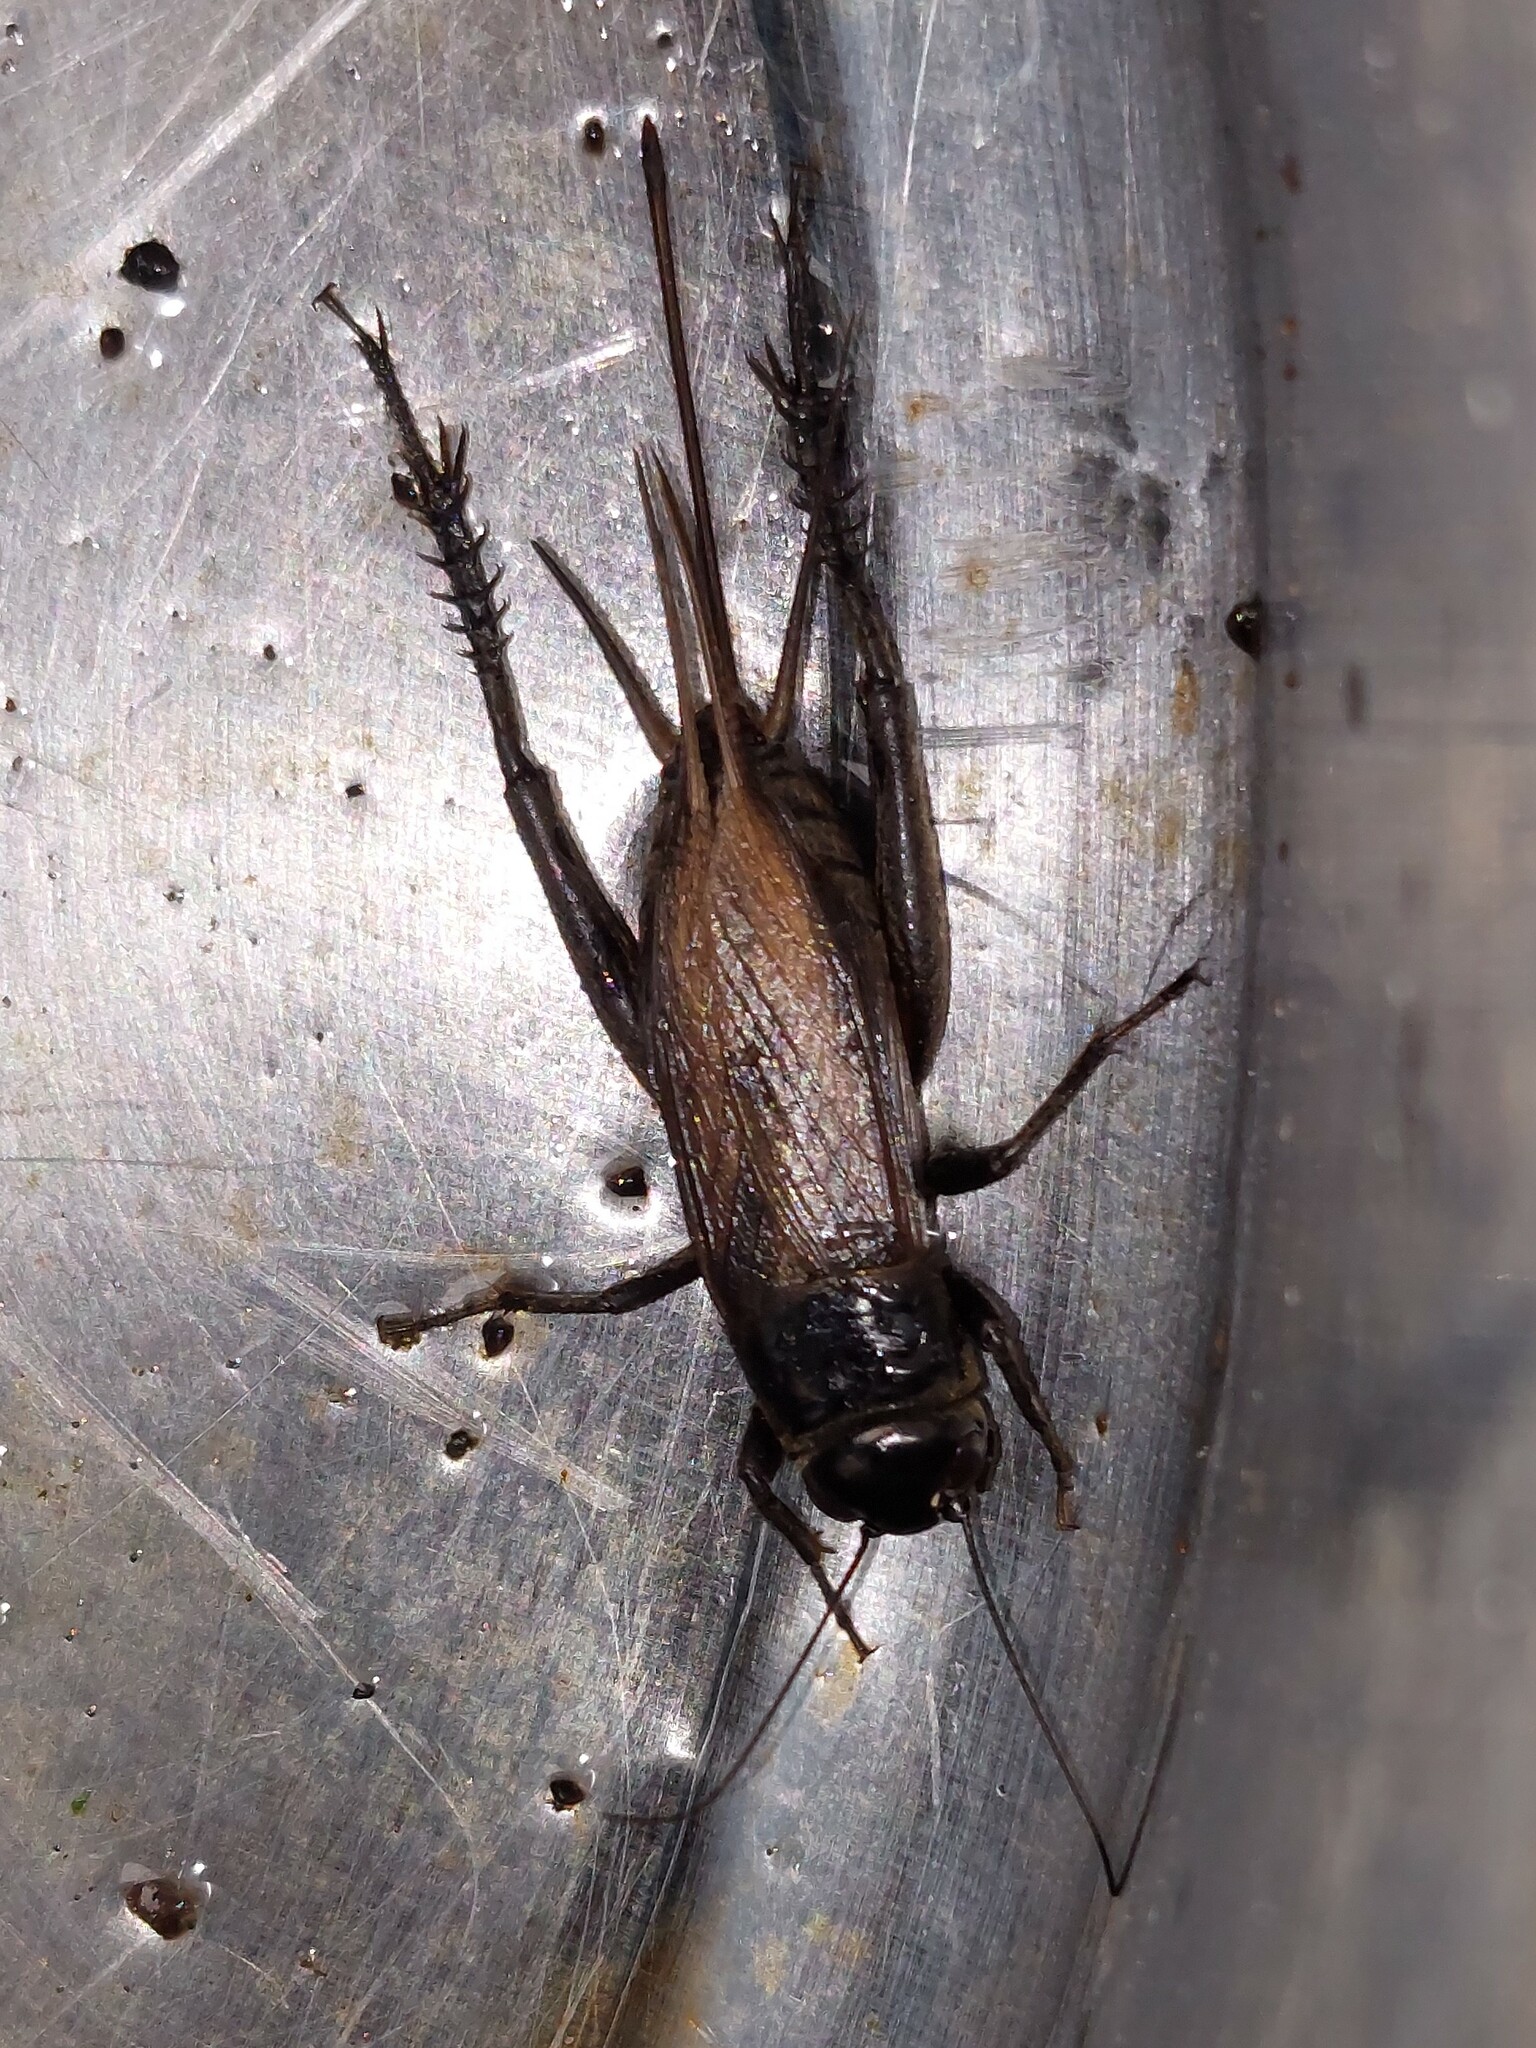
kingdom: Animalia
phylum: Arthropoda
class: Insecta
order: Orthoptera
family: Gryllidae
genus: Teleogryllus
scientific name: Teleogryllus commodus
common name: Black field cricket
